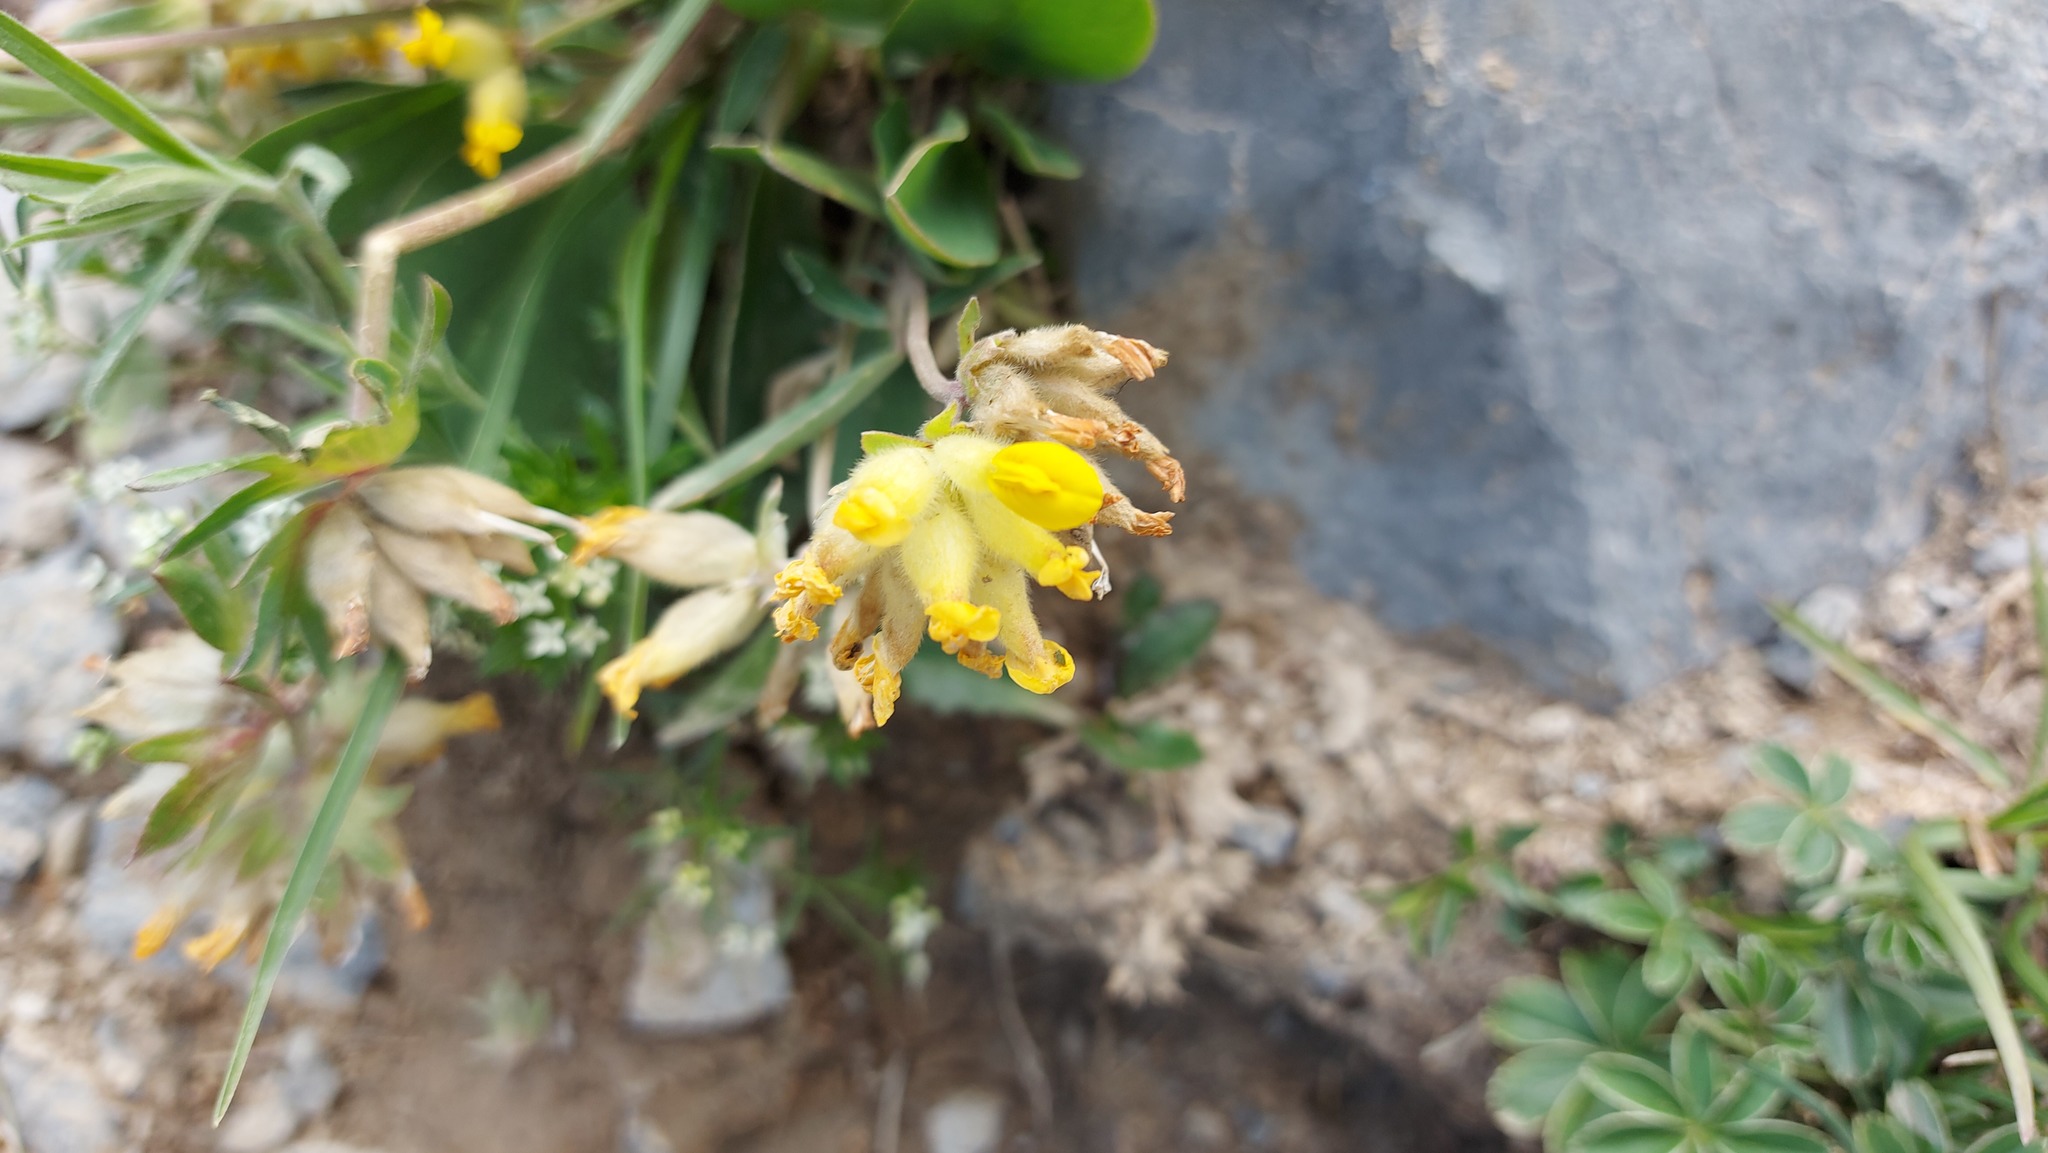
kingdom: Plantae
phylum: Tracheophyta
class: Magnoliopsida
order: Fabales
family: Fabaceae
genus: Anthyllis
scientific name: Anthyllis vulneraria
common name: Kidney vetch
